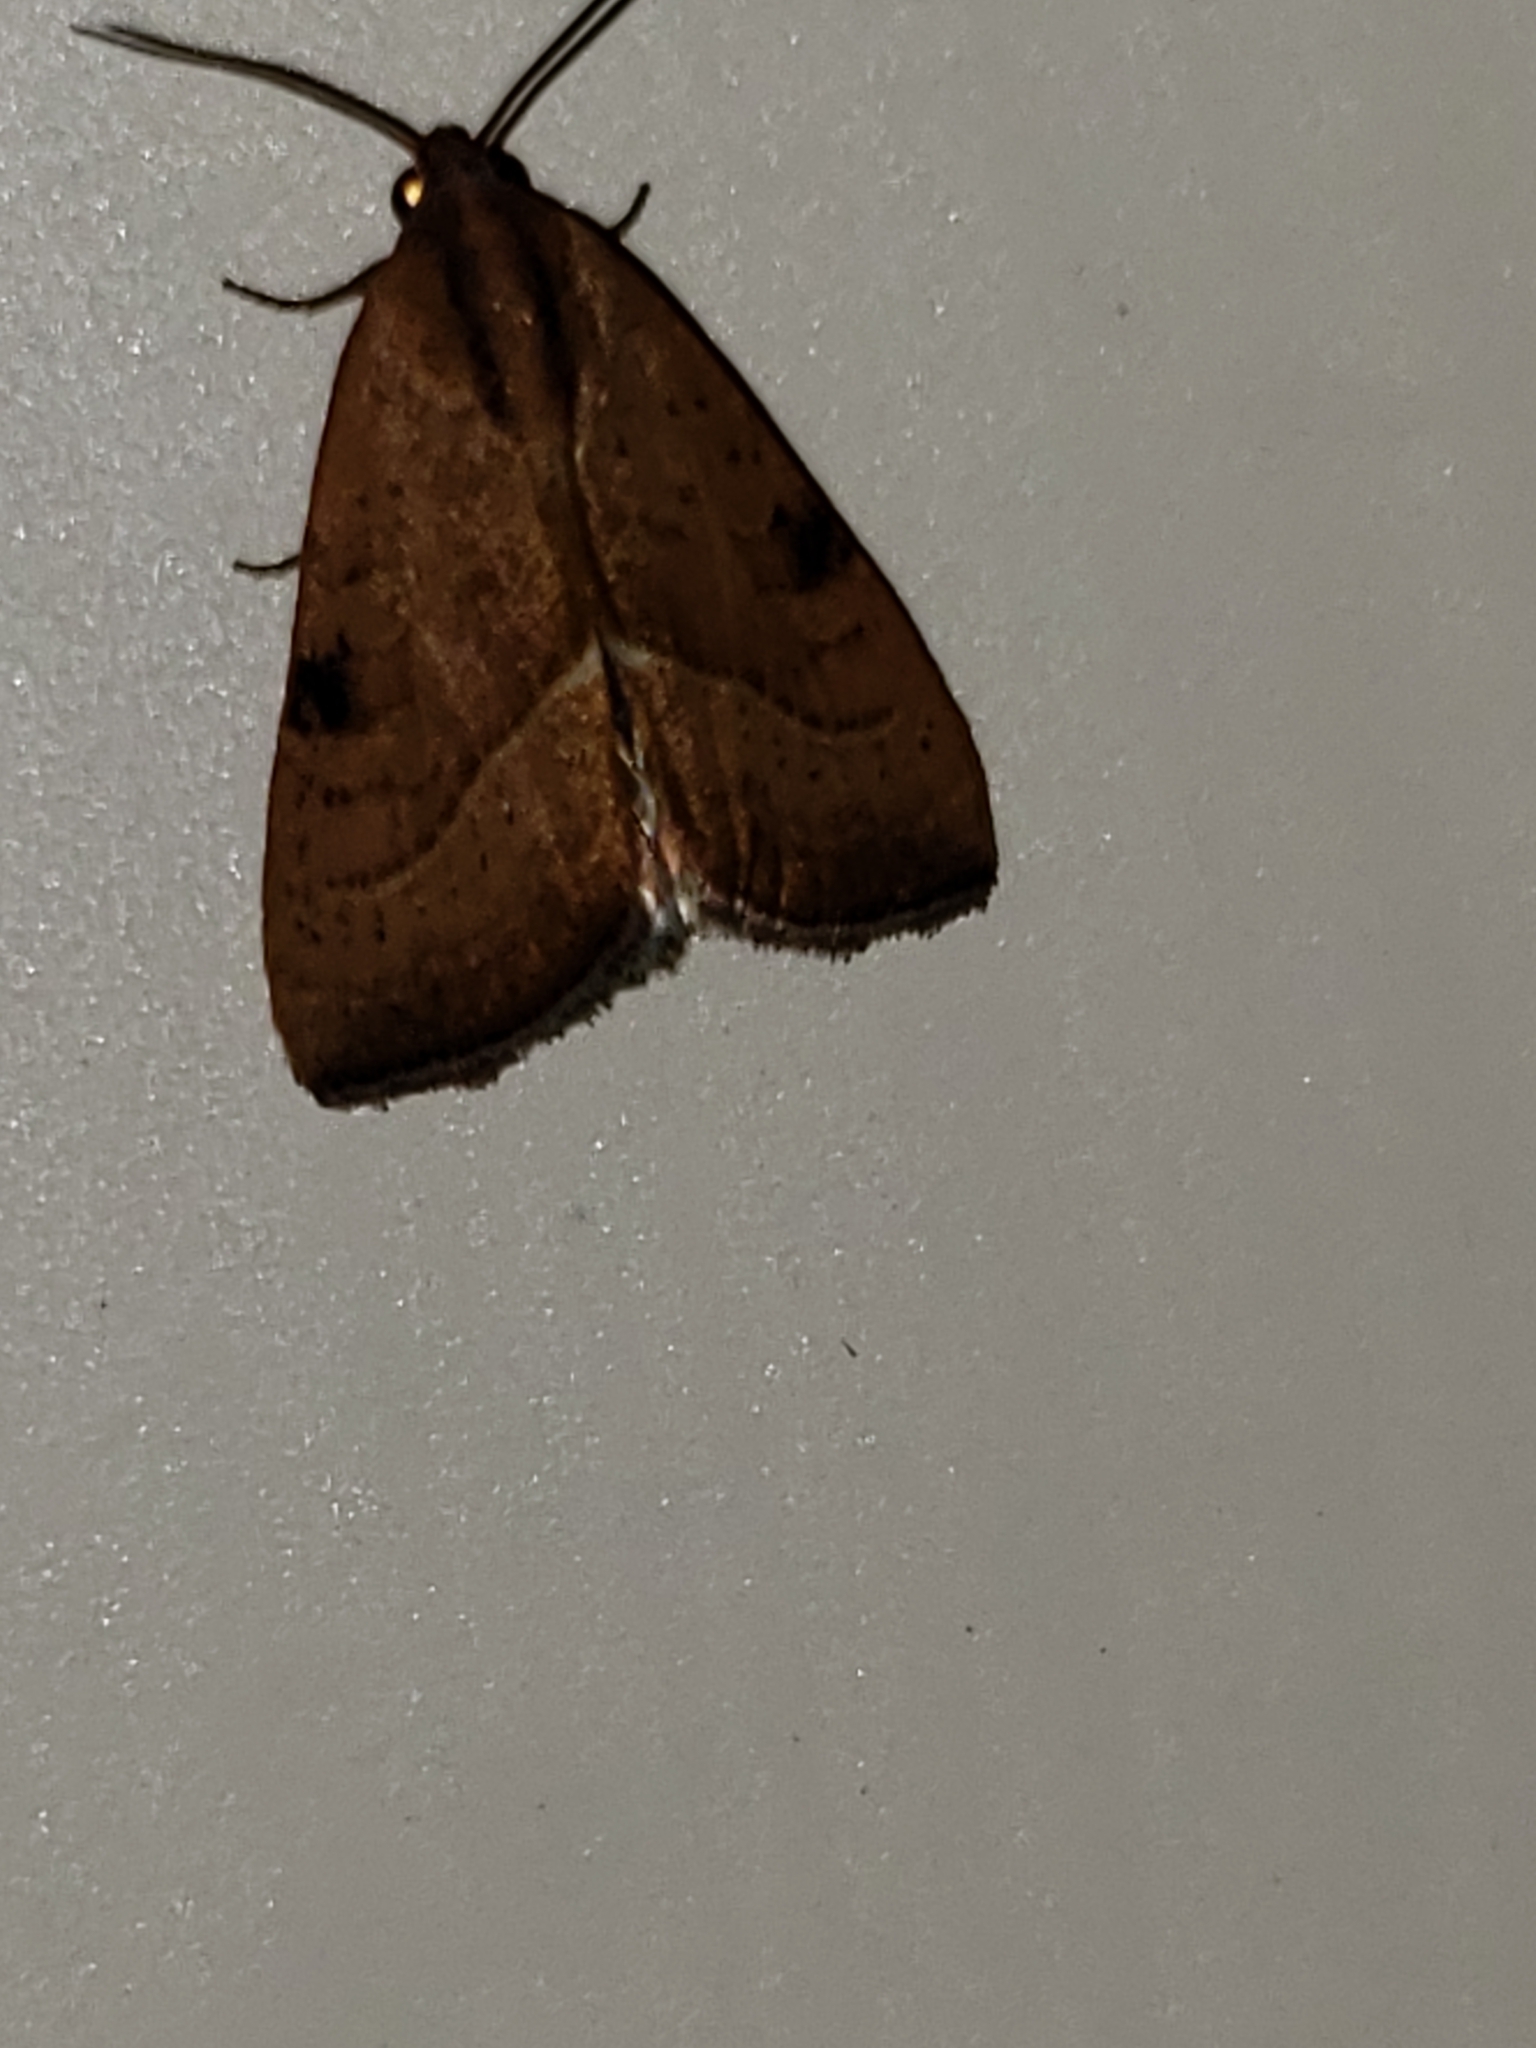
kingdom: Animalia
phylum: Arthropoda
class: Insecta
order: Lepidoptera
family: Noctuidae
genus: Galgula
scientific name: Galgula partita
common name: Wedgeling
